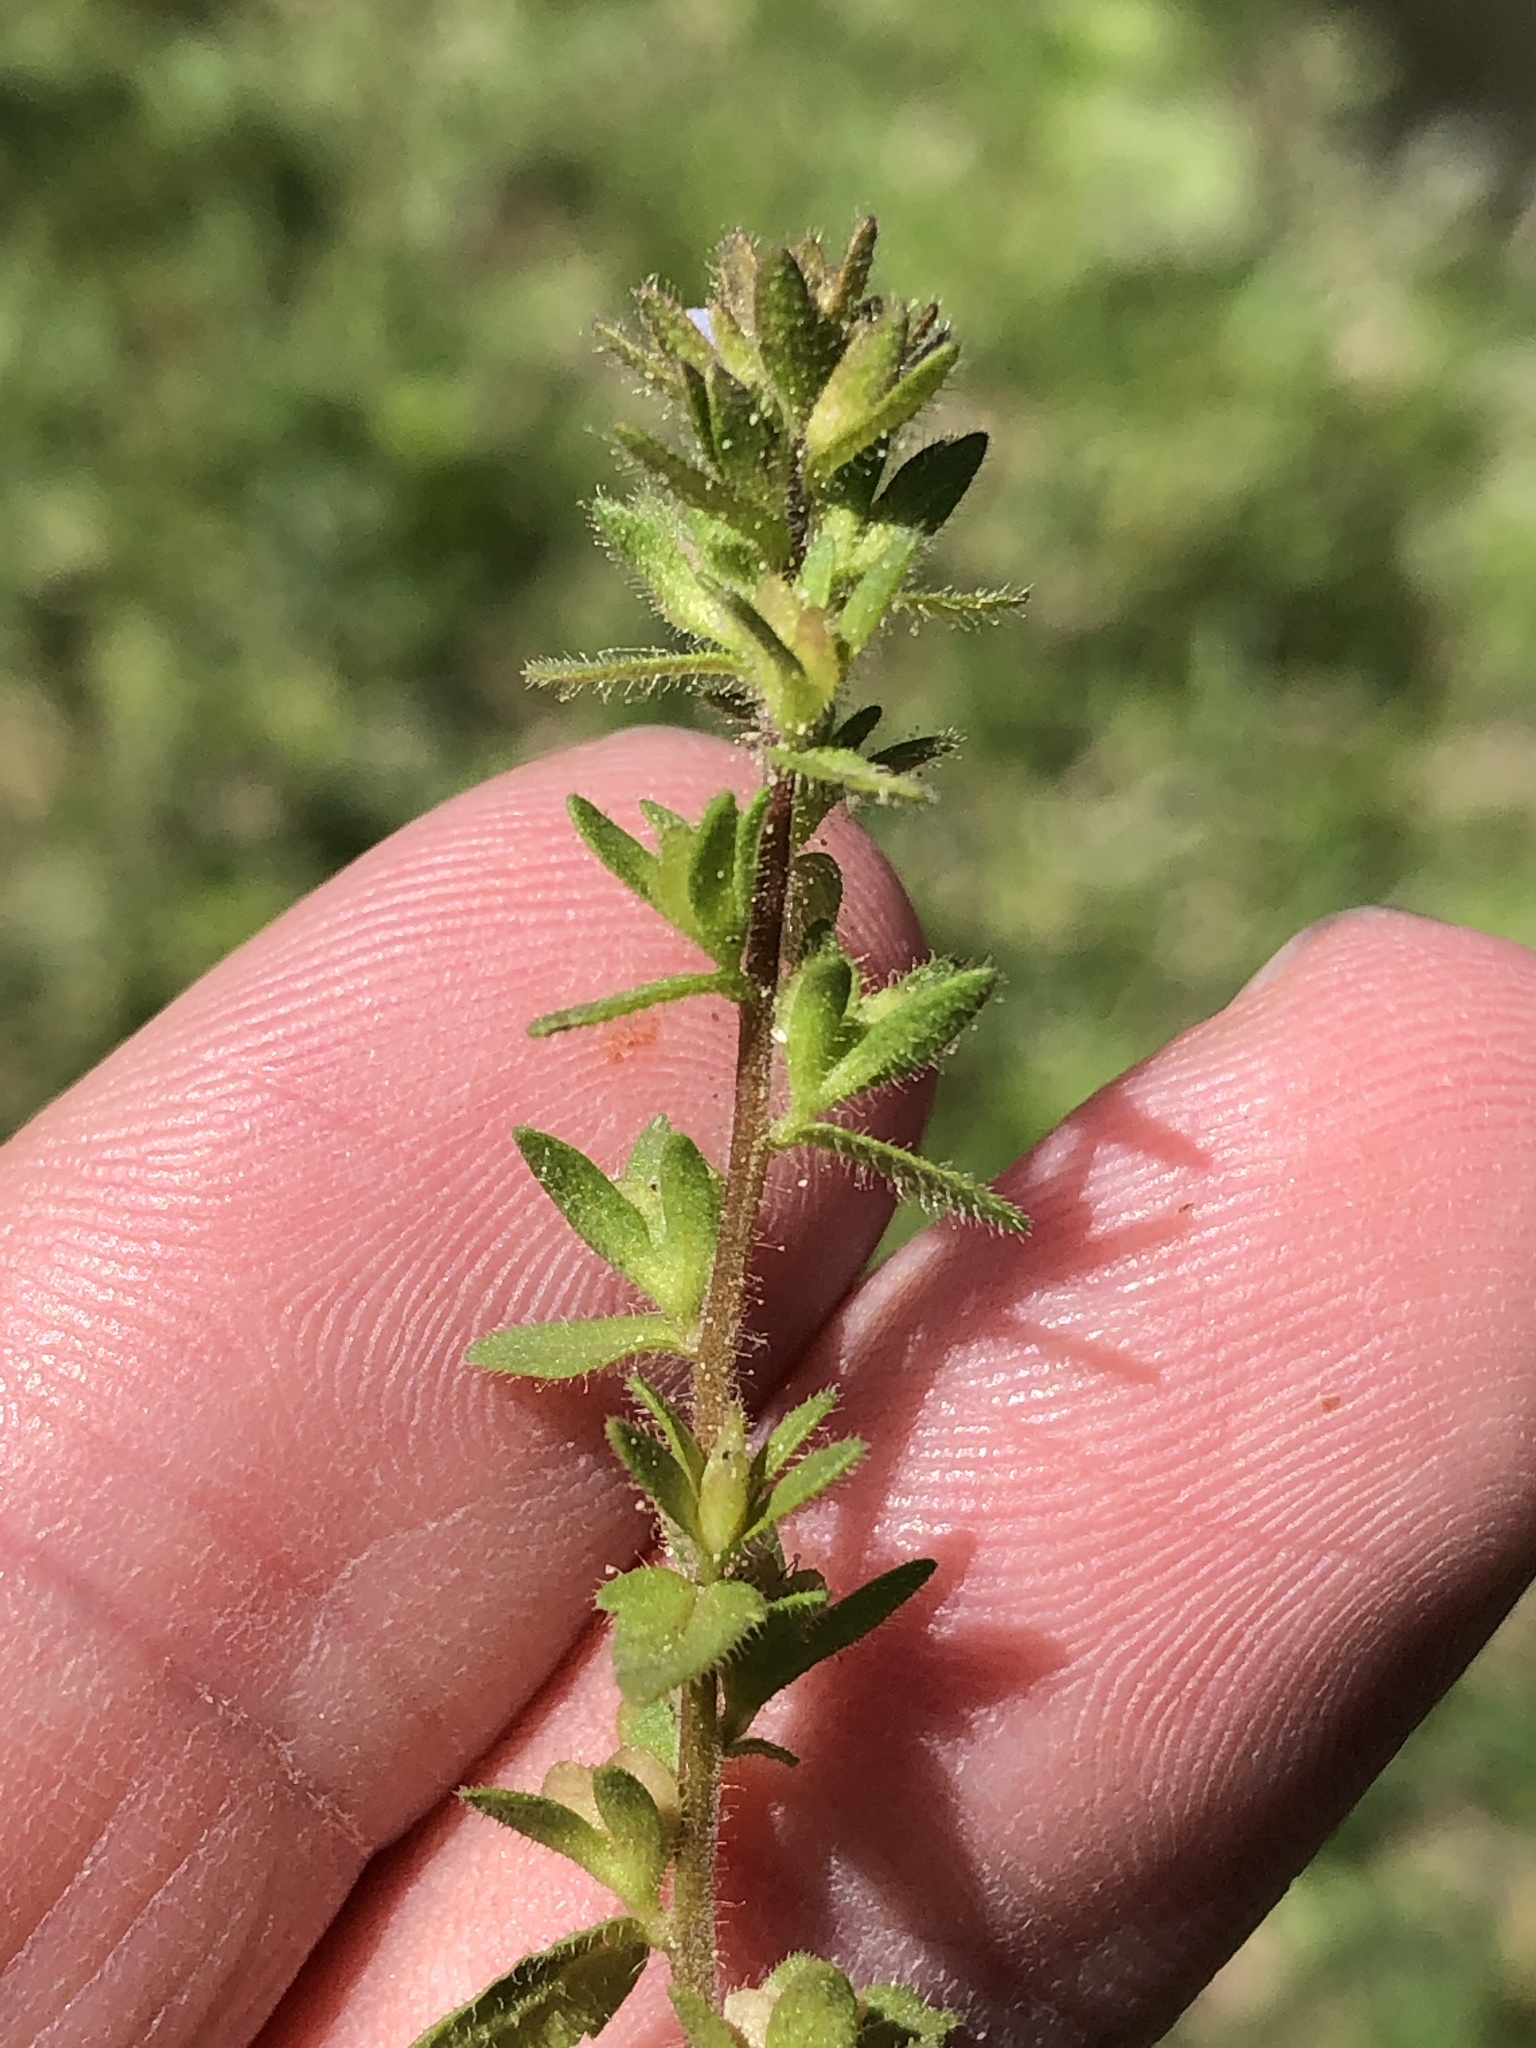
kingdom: Plantae
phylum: Tracheophyta
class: Magnoliopsida
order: Lamiales
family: Plantaginaceae
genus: Veronica
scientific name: Veronica arvensis
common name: Corn speedwell
